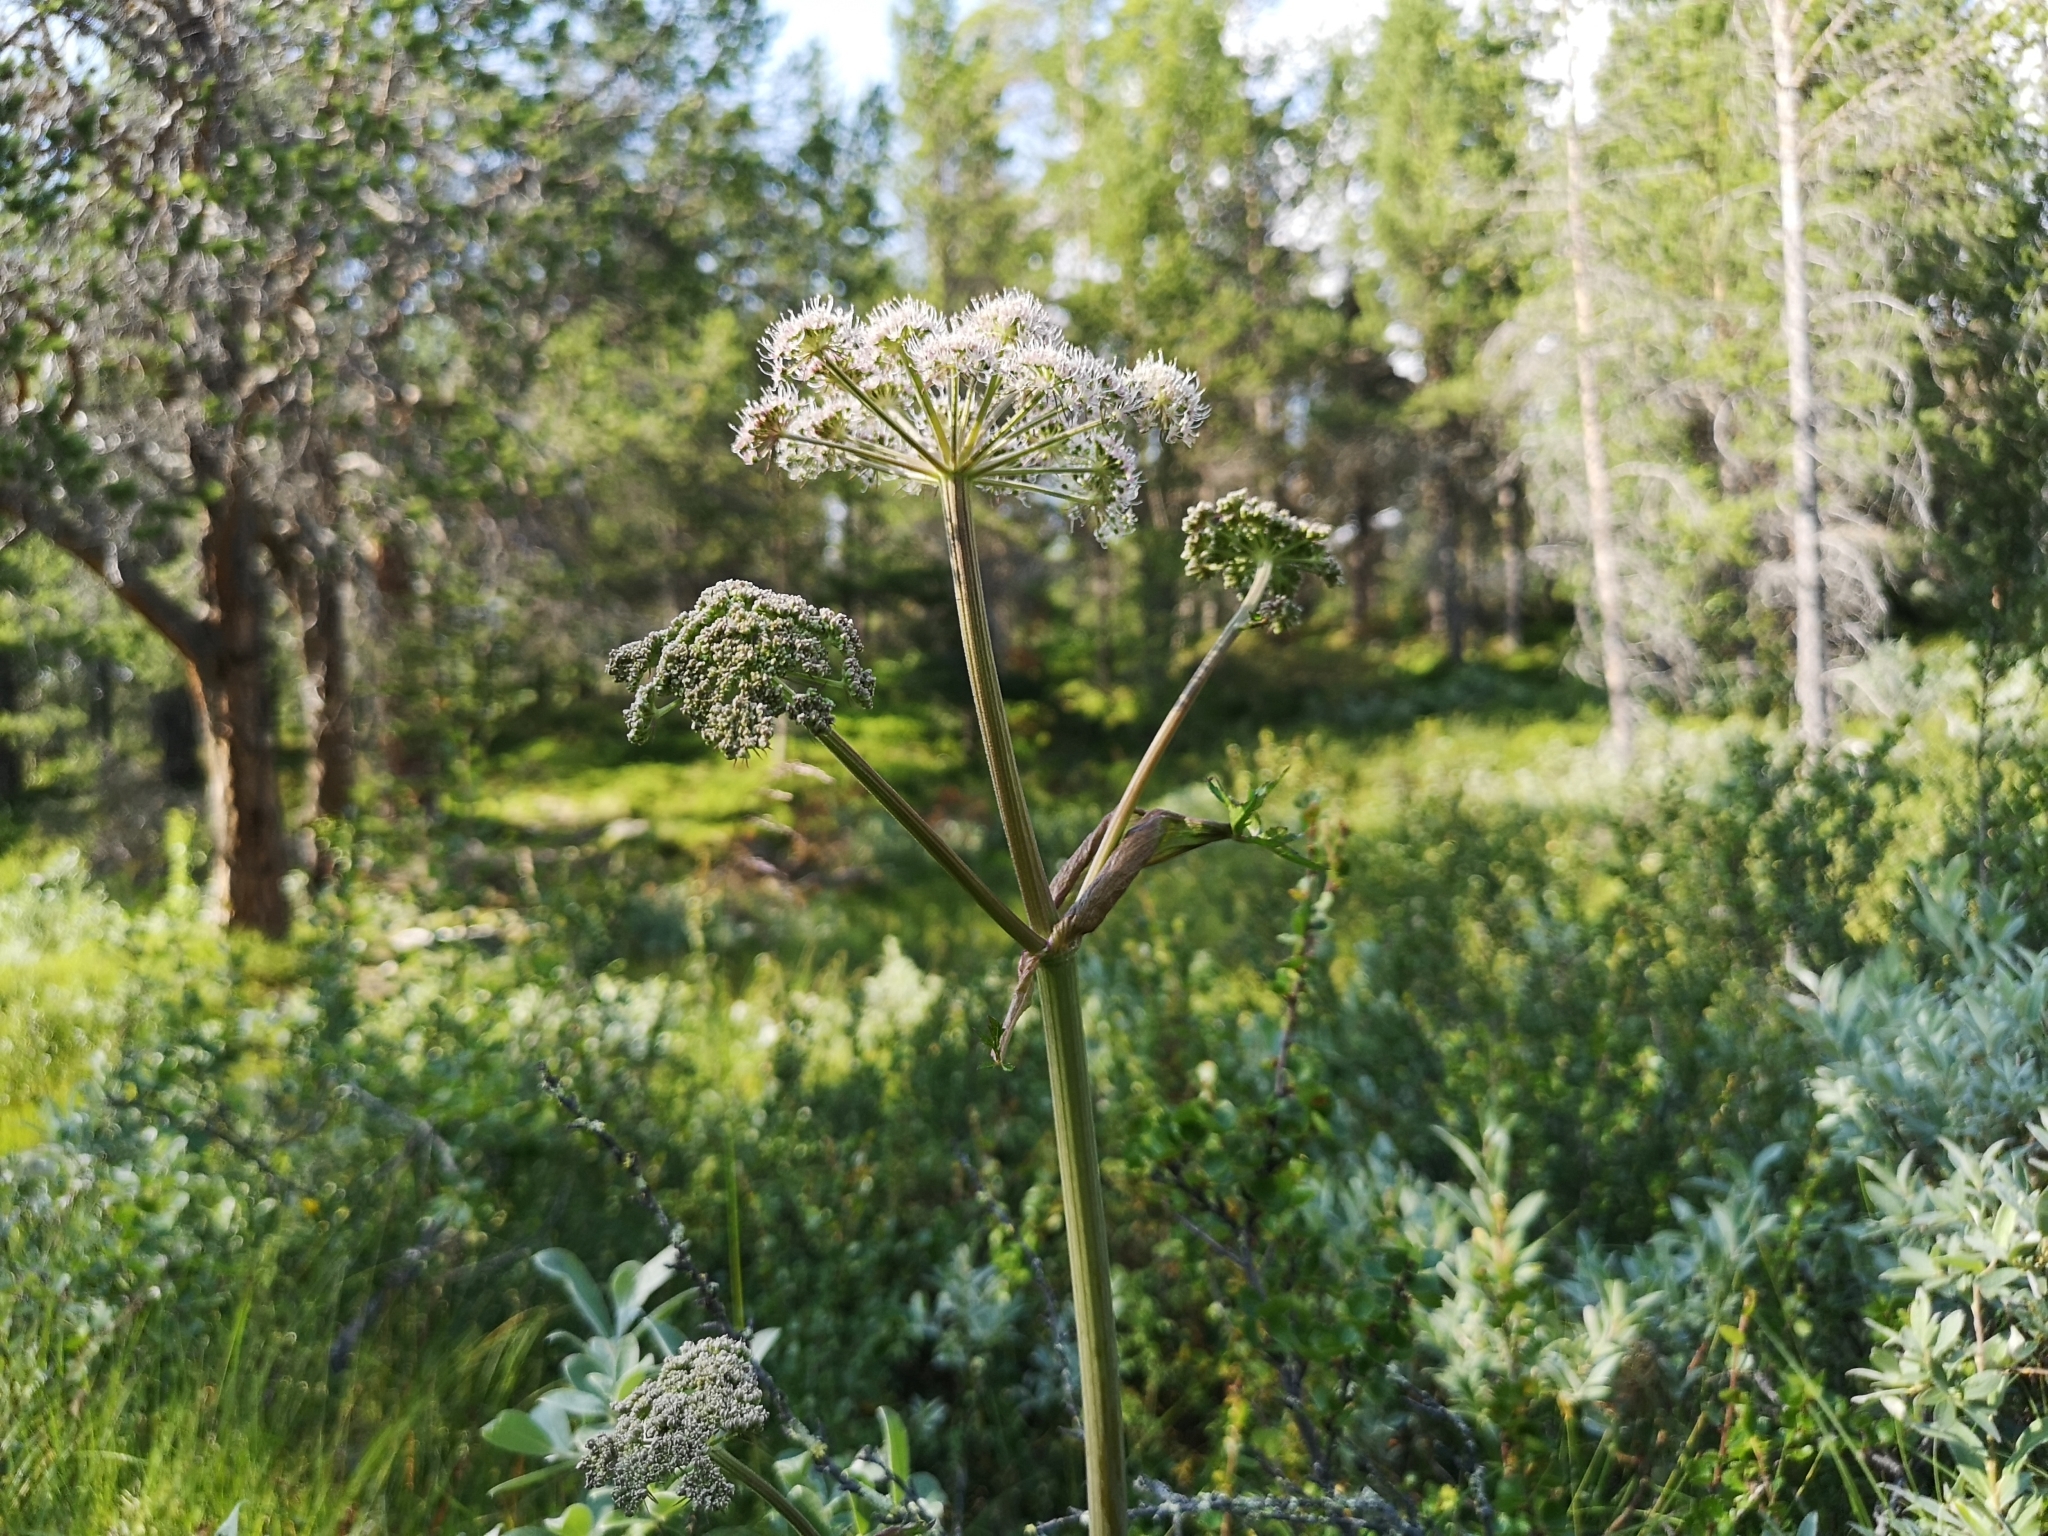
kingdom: Plantae
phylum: Tracheophyta
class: Magnoliopsida
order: Apiales
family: Apiaceae
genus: Angelica
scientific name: Angelica sylvestris
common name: Wild angelica
